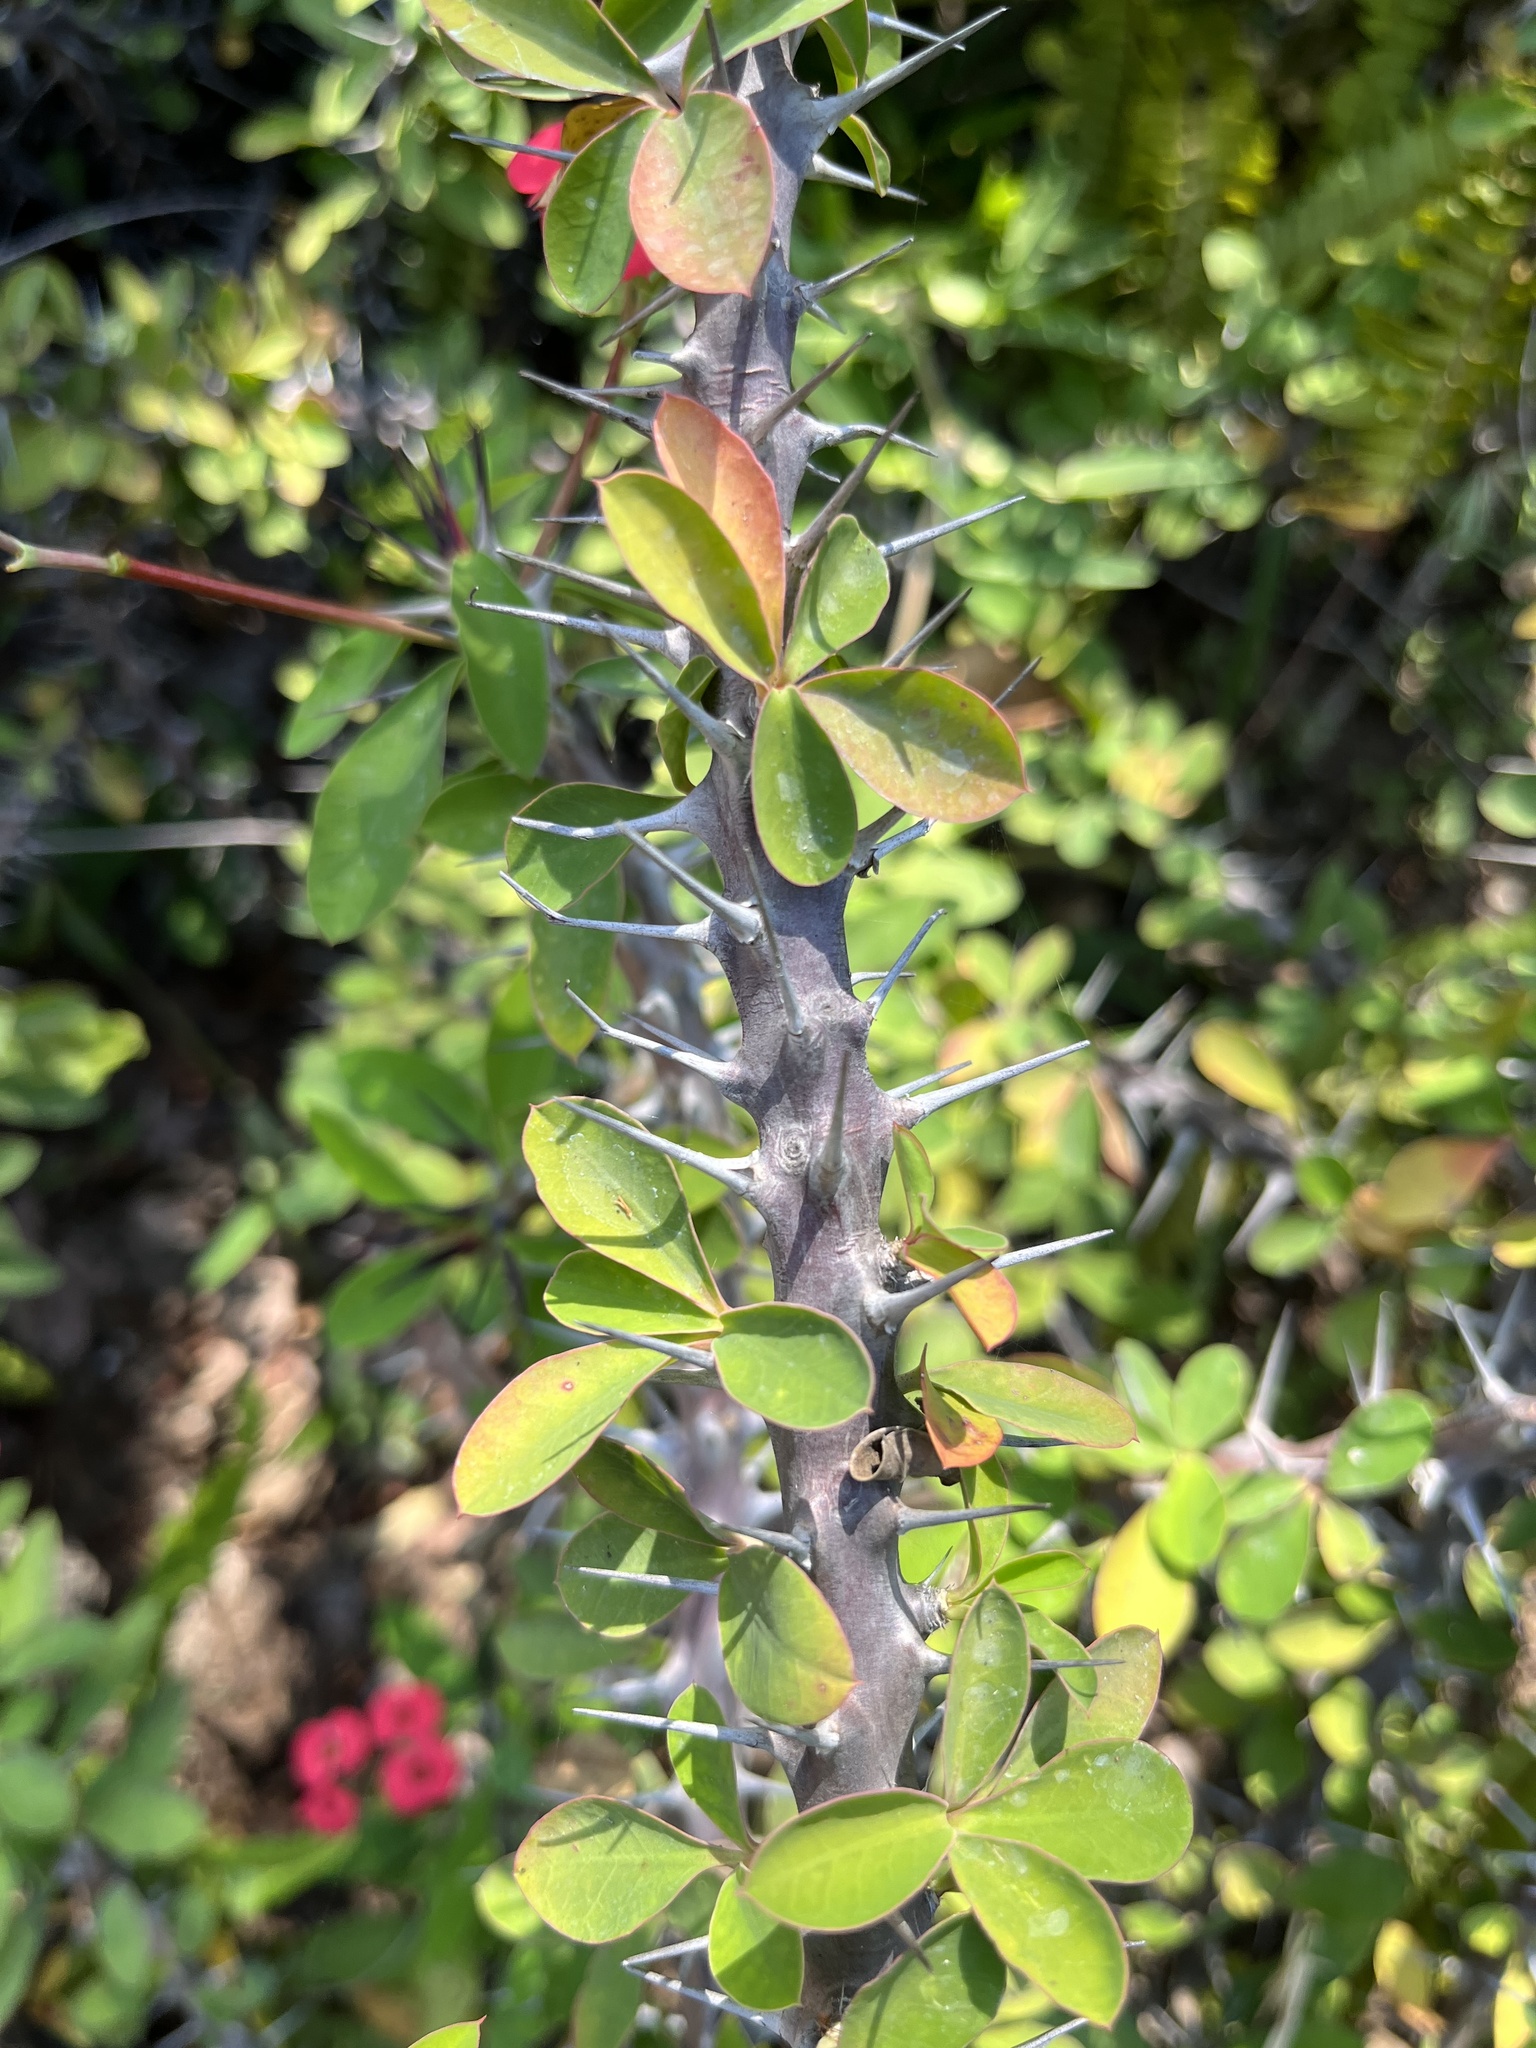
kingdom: Plantae
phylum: Tracheophyta
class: Magnoliopsida
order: Malpighiales
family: Euphorbiaceae
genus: Euphorbia
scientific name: Euphorbia milii
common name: Christplant
